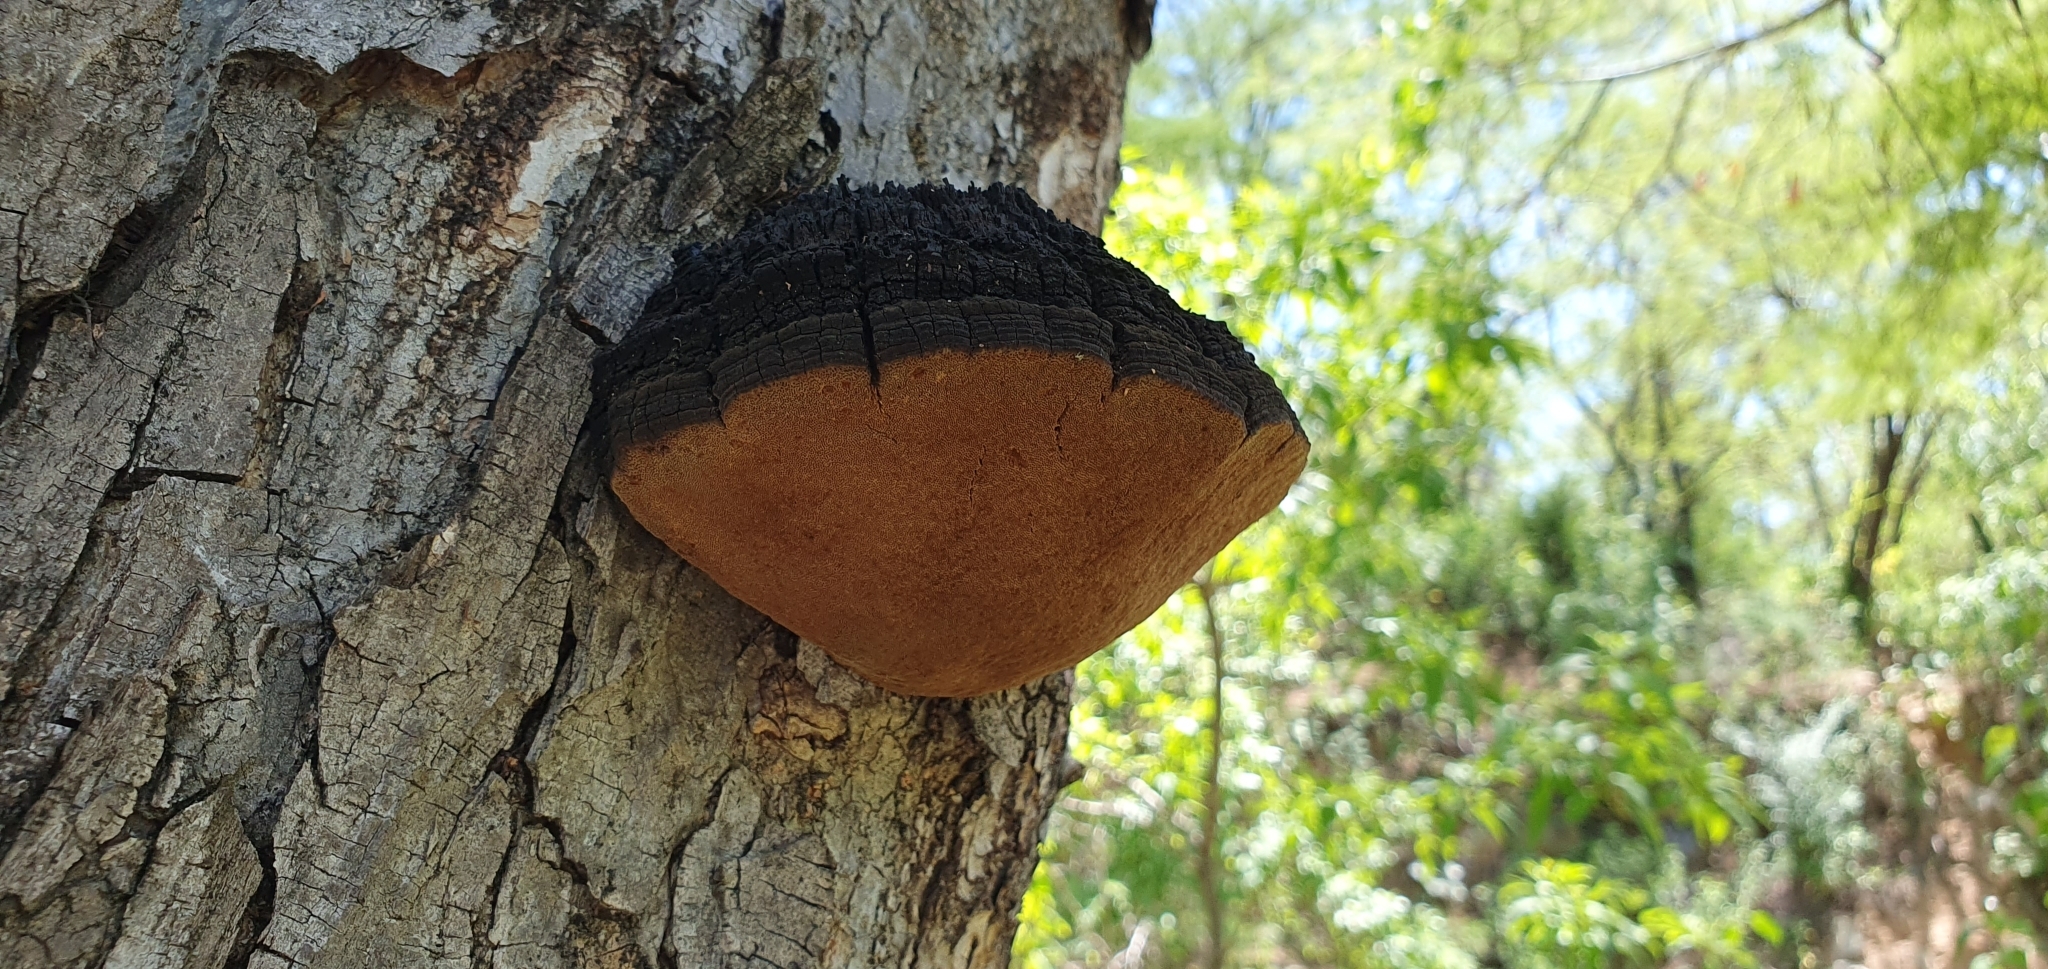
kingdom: Fungi
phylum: Basidiomycota
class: Agaricomycetes
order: Hymenochaetales
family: Hymenochaetaceae
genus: Phellinus
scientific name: Phellinus robiniae
